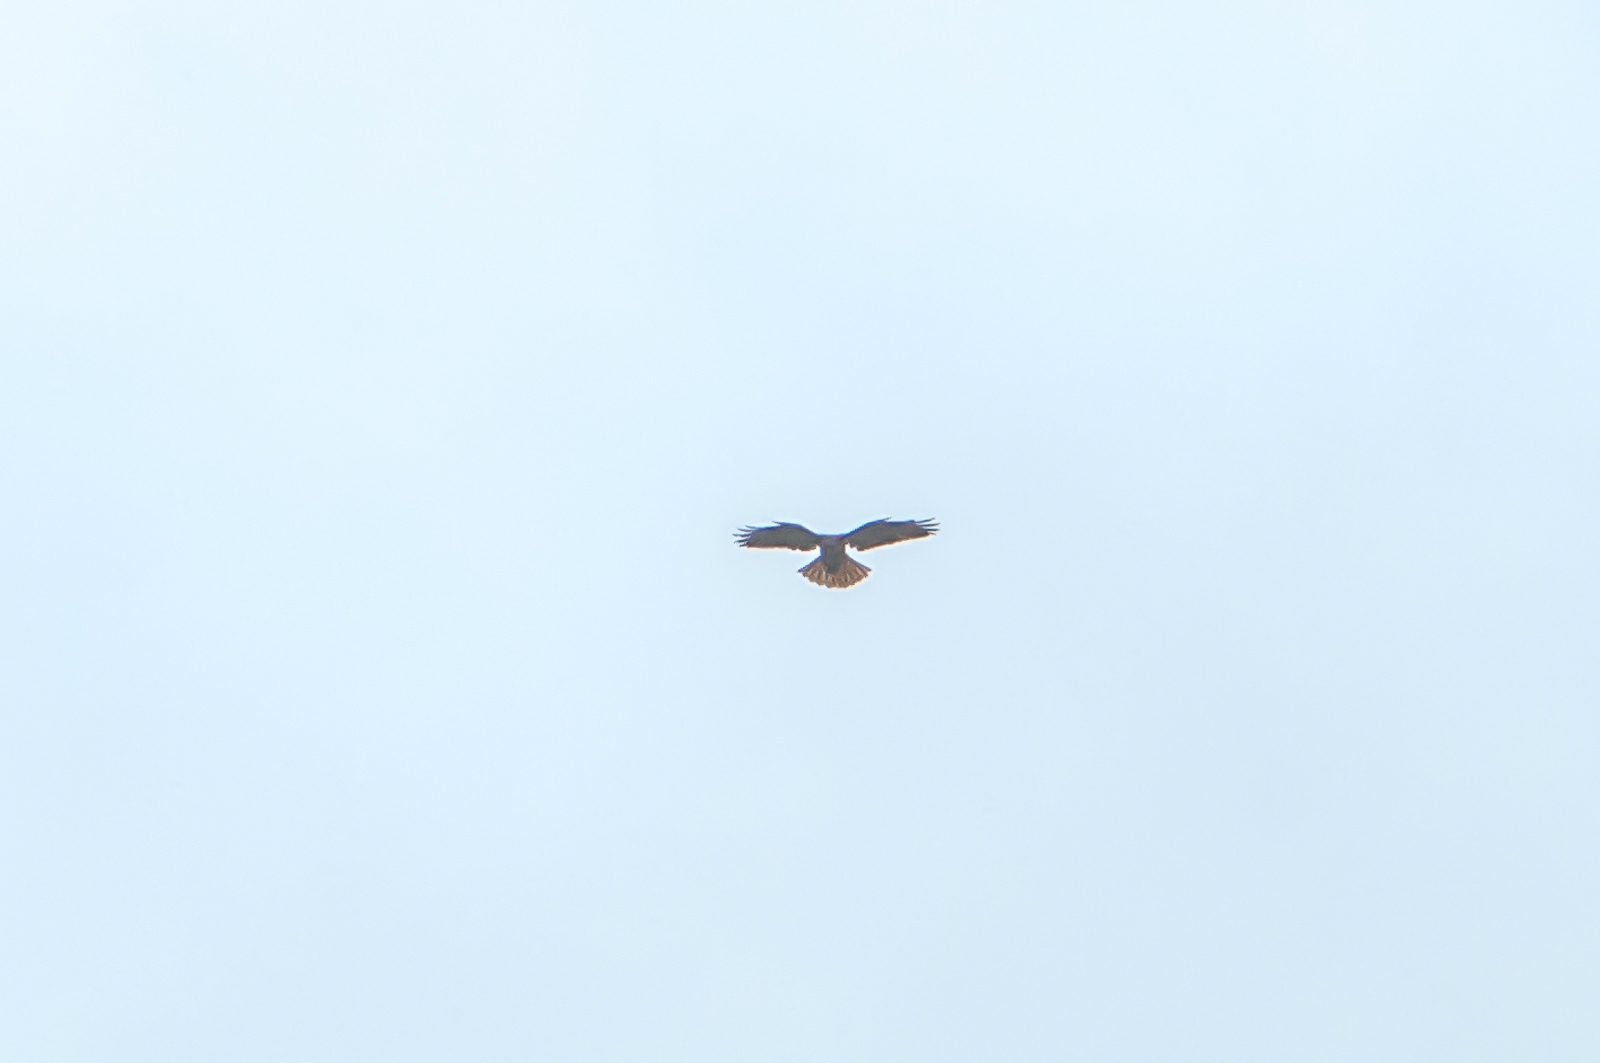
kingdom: Animalia
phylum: Chordata
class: Aves
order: Accipitriformes
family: Accipitridae
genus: Buteo
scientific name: Buteo jamaicensis
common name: Red-tailed hawk
